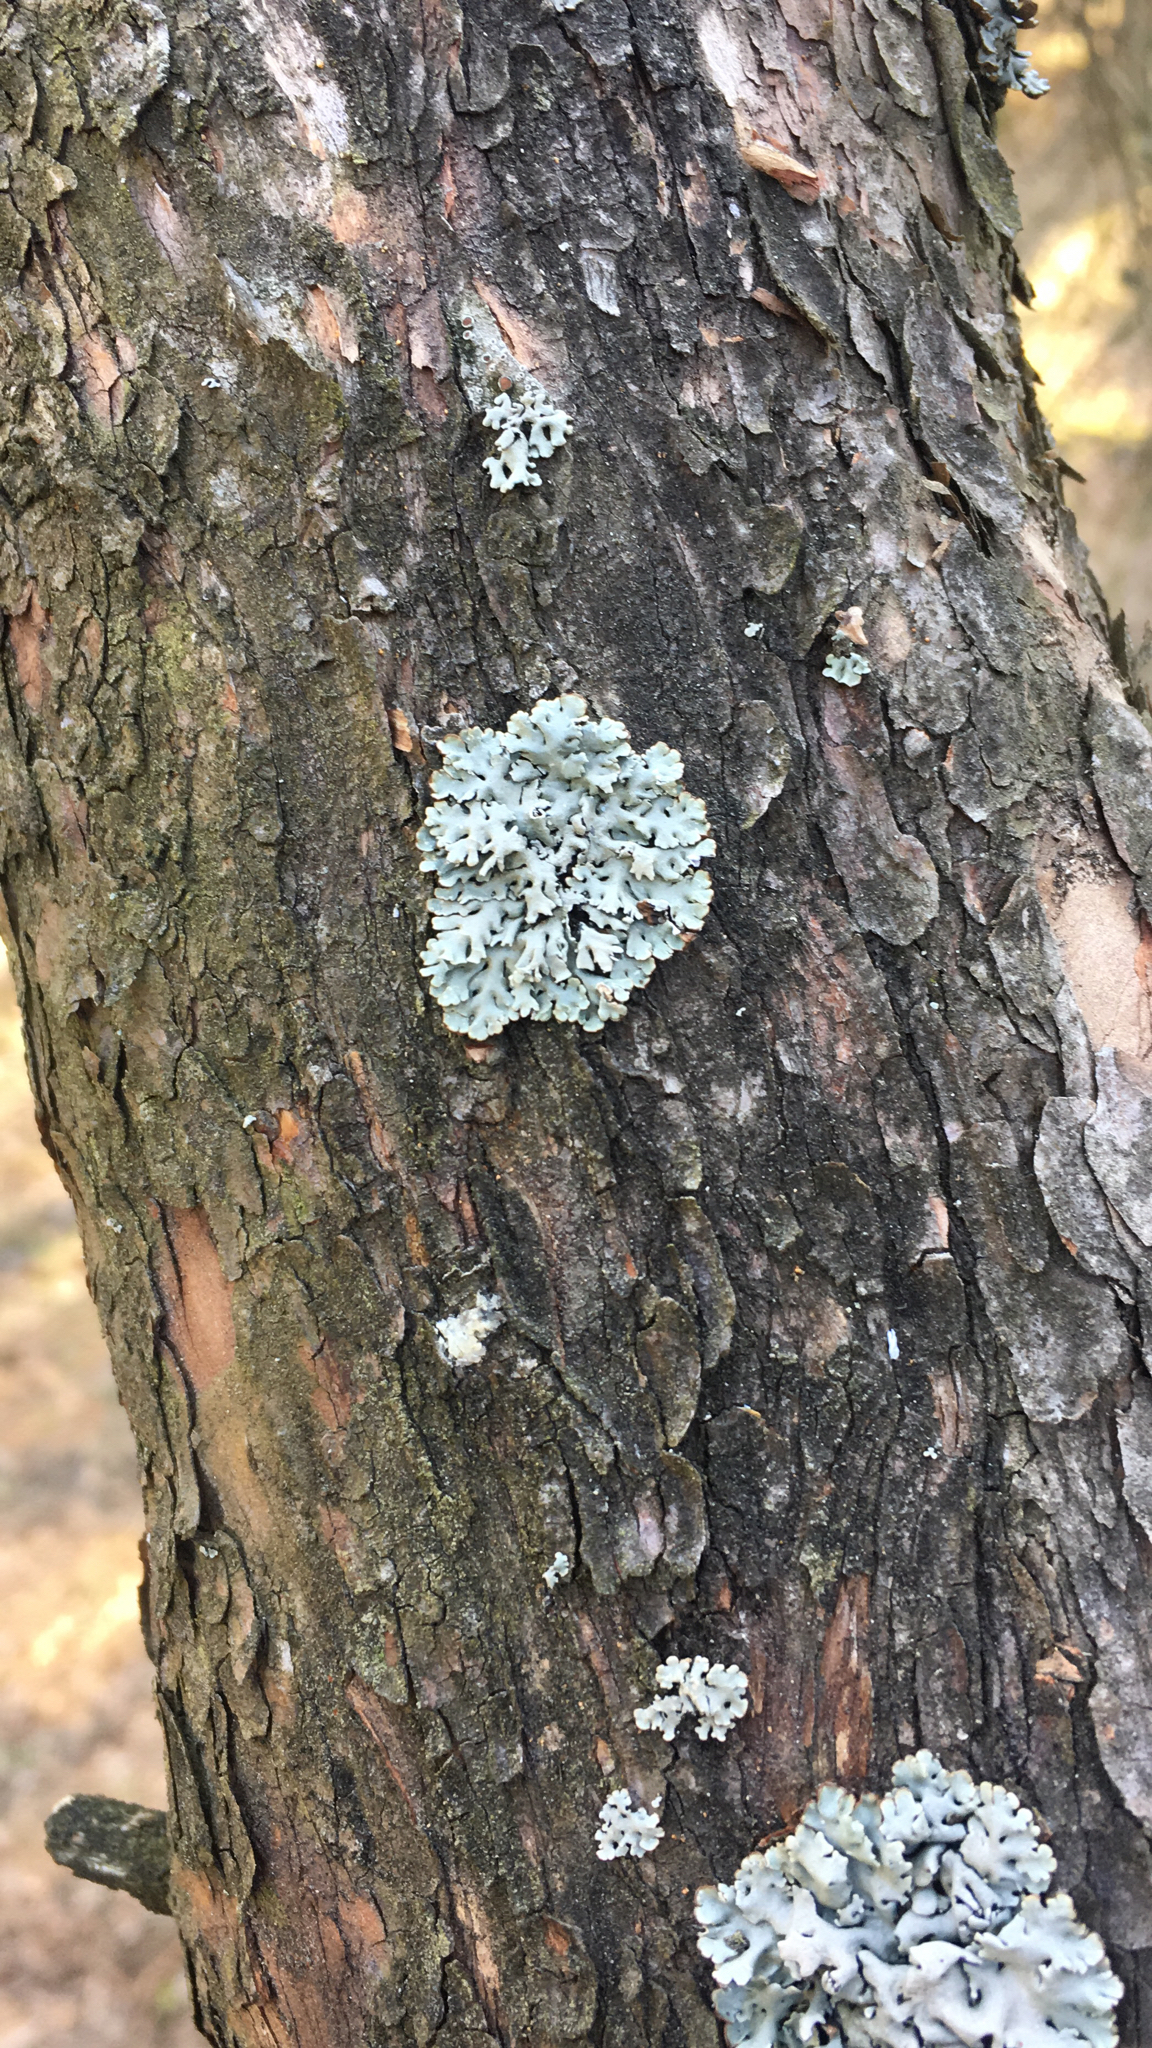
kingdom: Fungi
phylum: Ascomycota
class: Lecanoromycetes
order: Lecanorales
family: Parmeliaceae
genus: Hypogymnia
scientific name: Hypogymnia physodes
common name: Dark crottle
